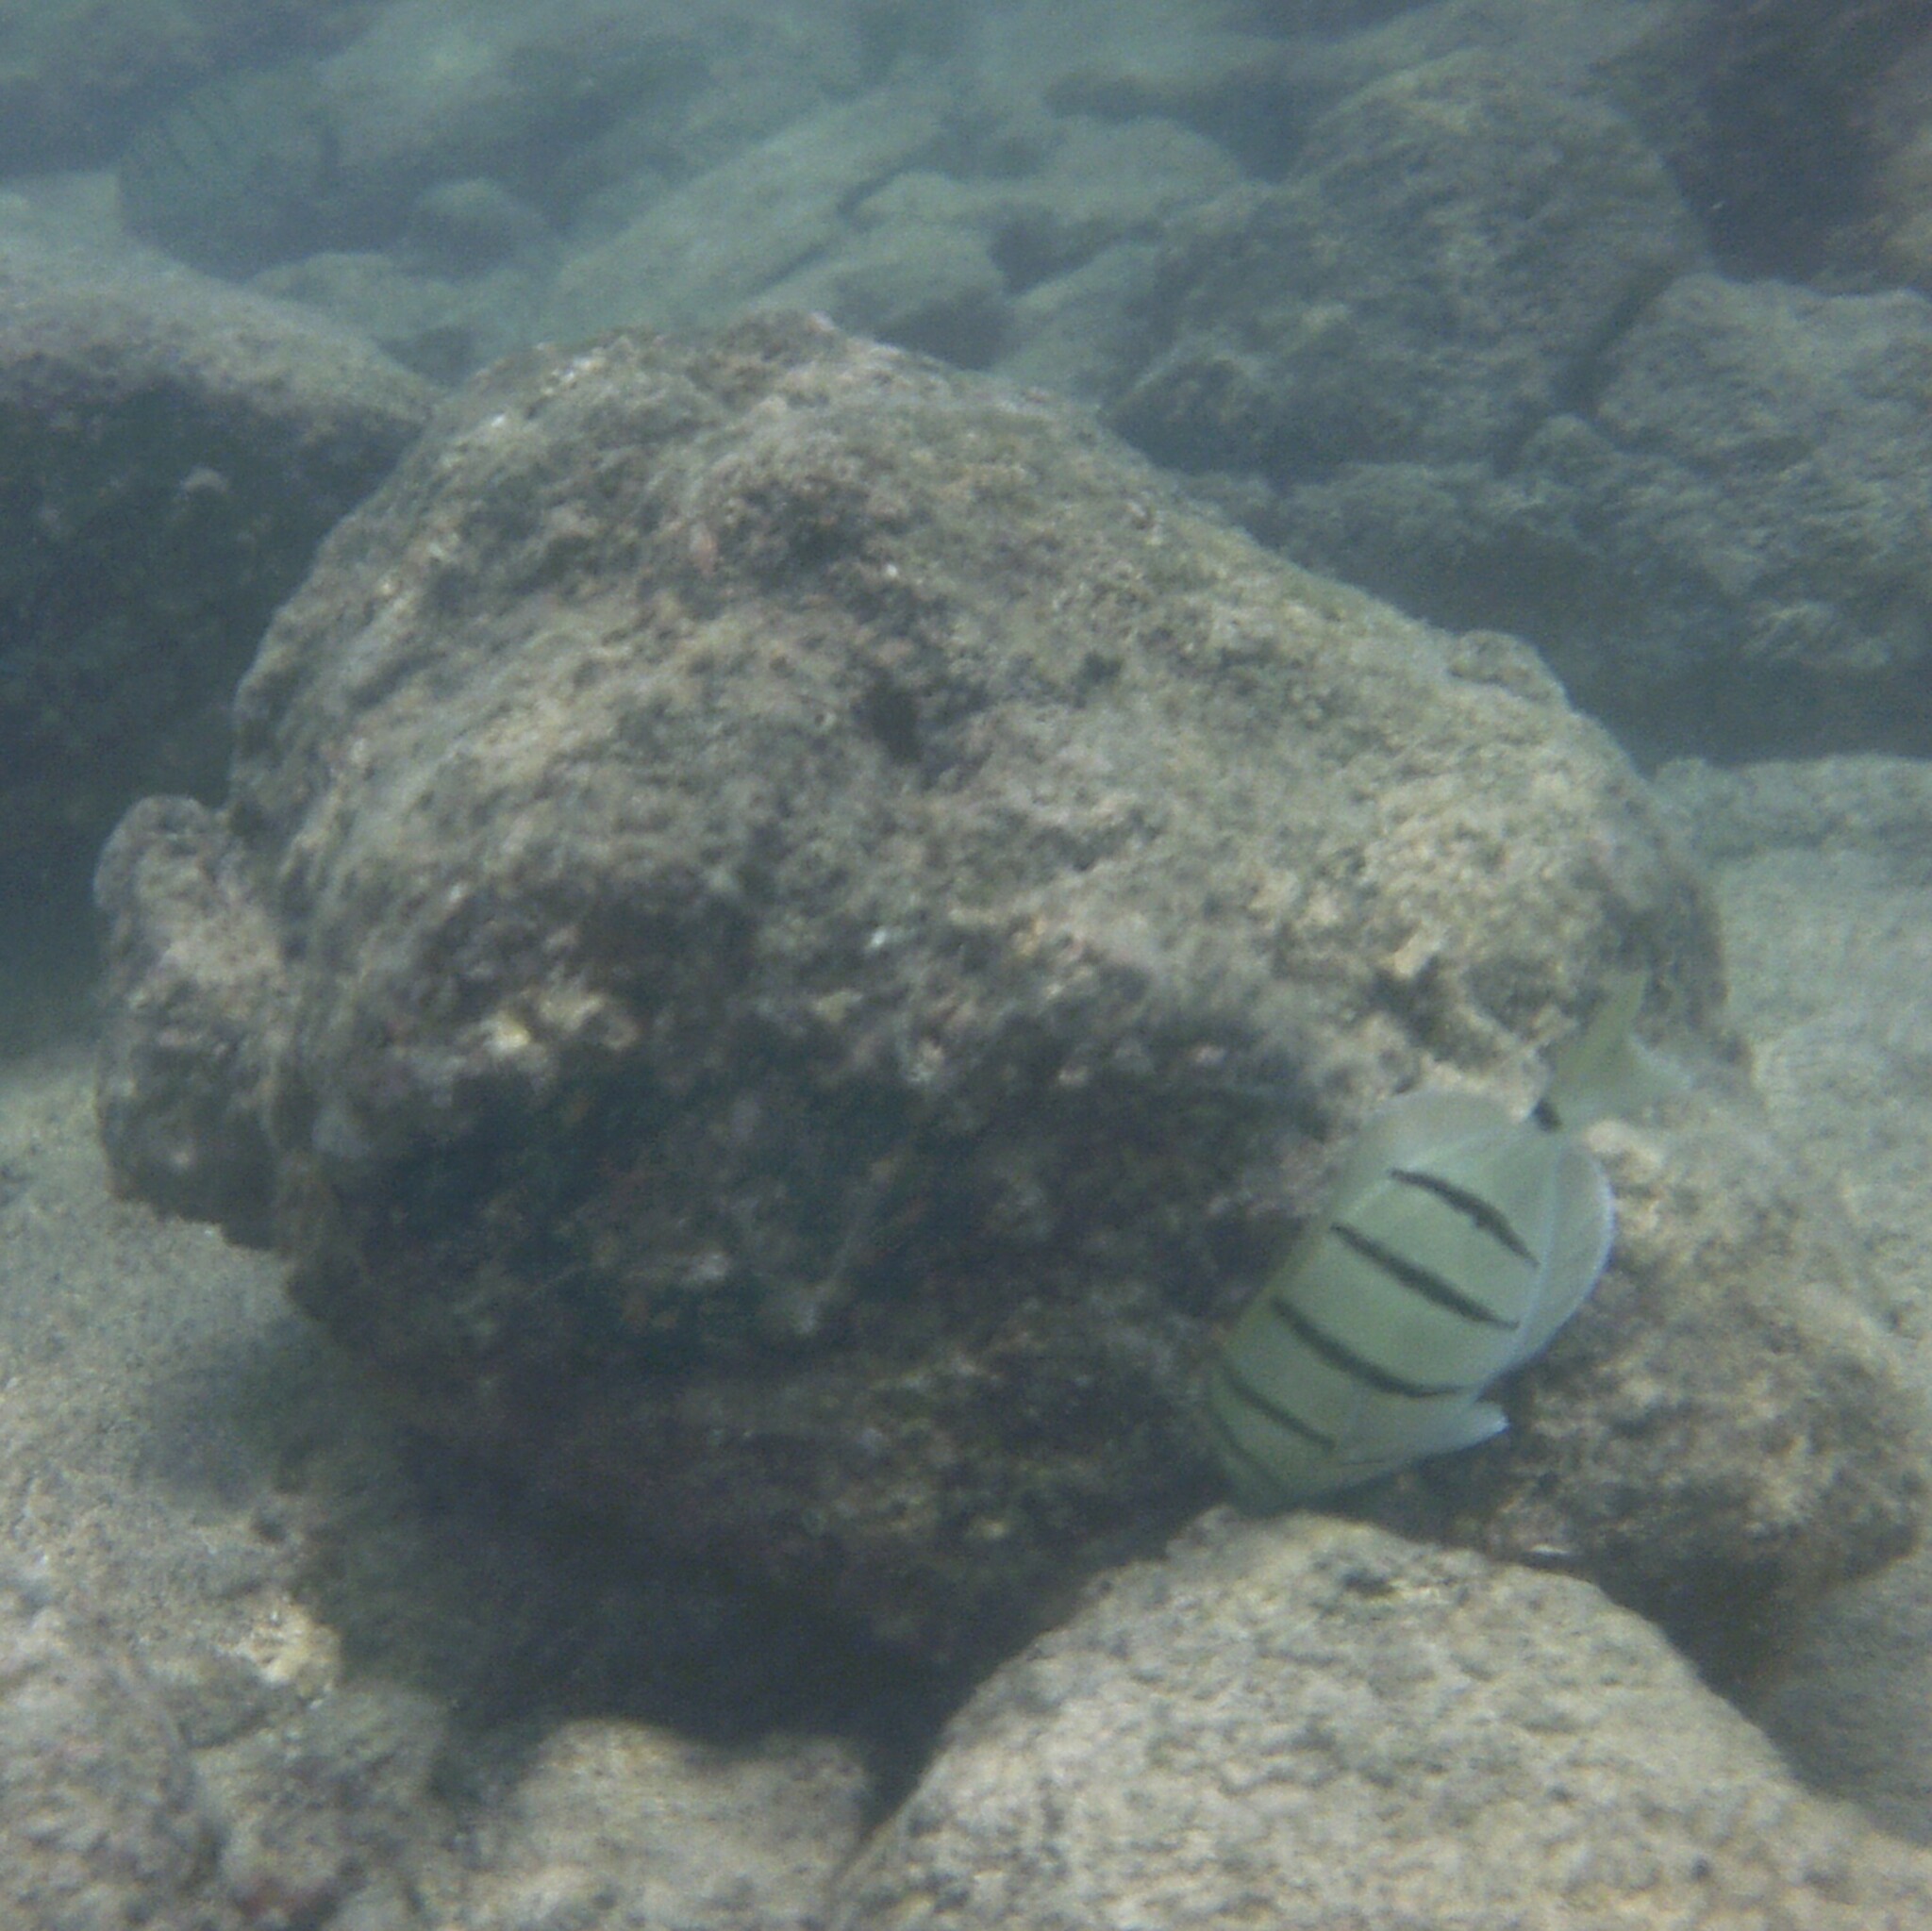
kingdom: Animalia
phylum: Chordata
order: Perciformes
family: Acanthuridae
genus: Acanthurus
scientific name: Acanthurus triostegus
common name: Convict surgeonfish
